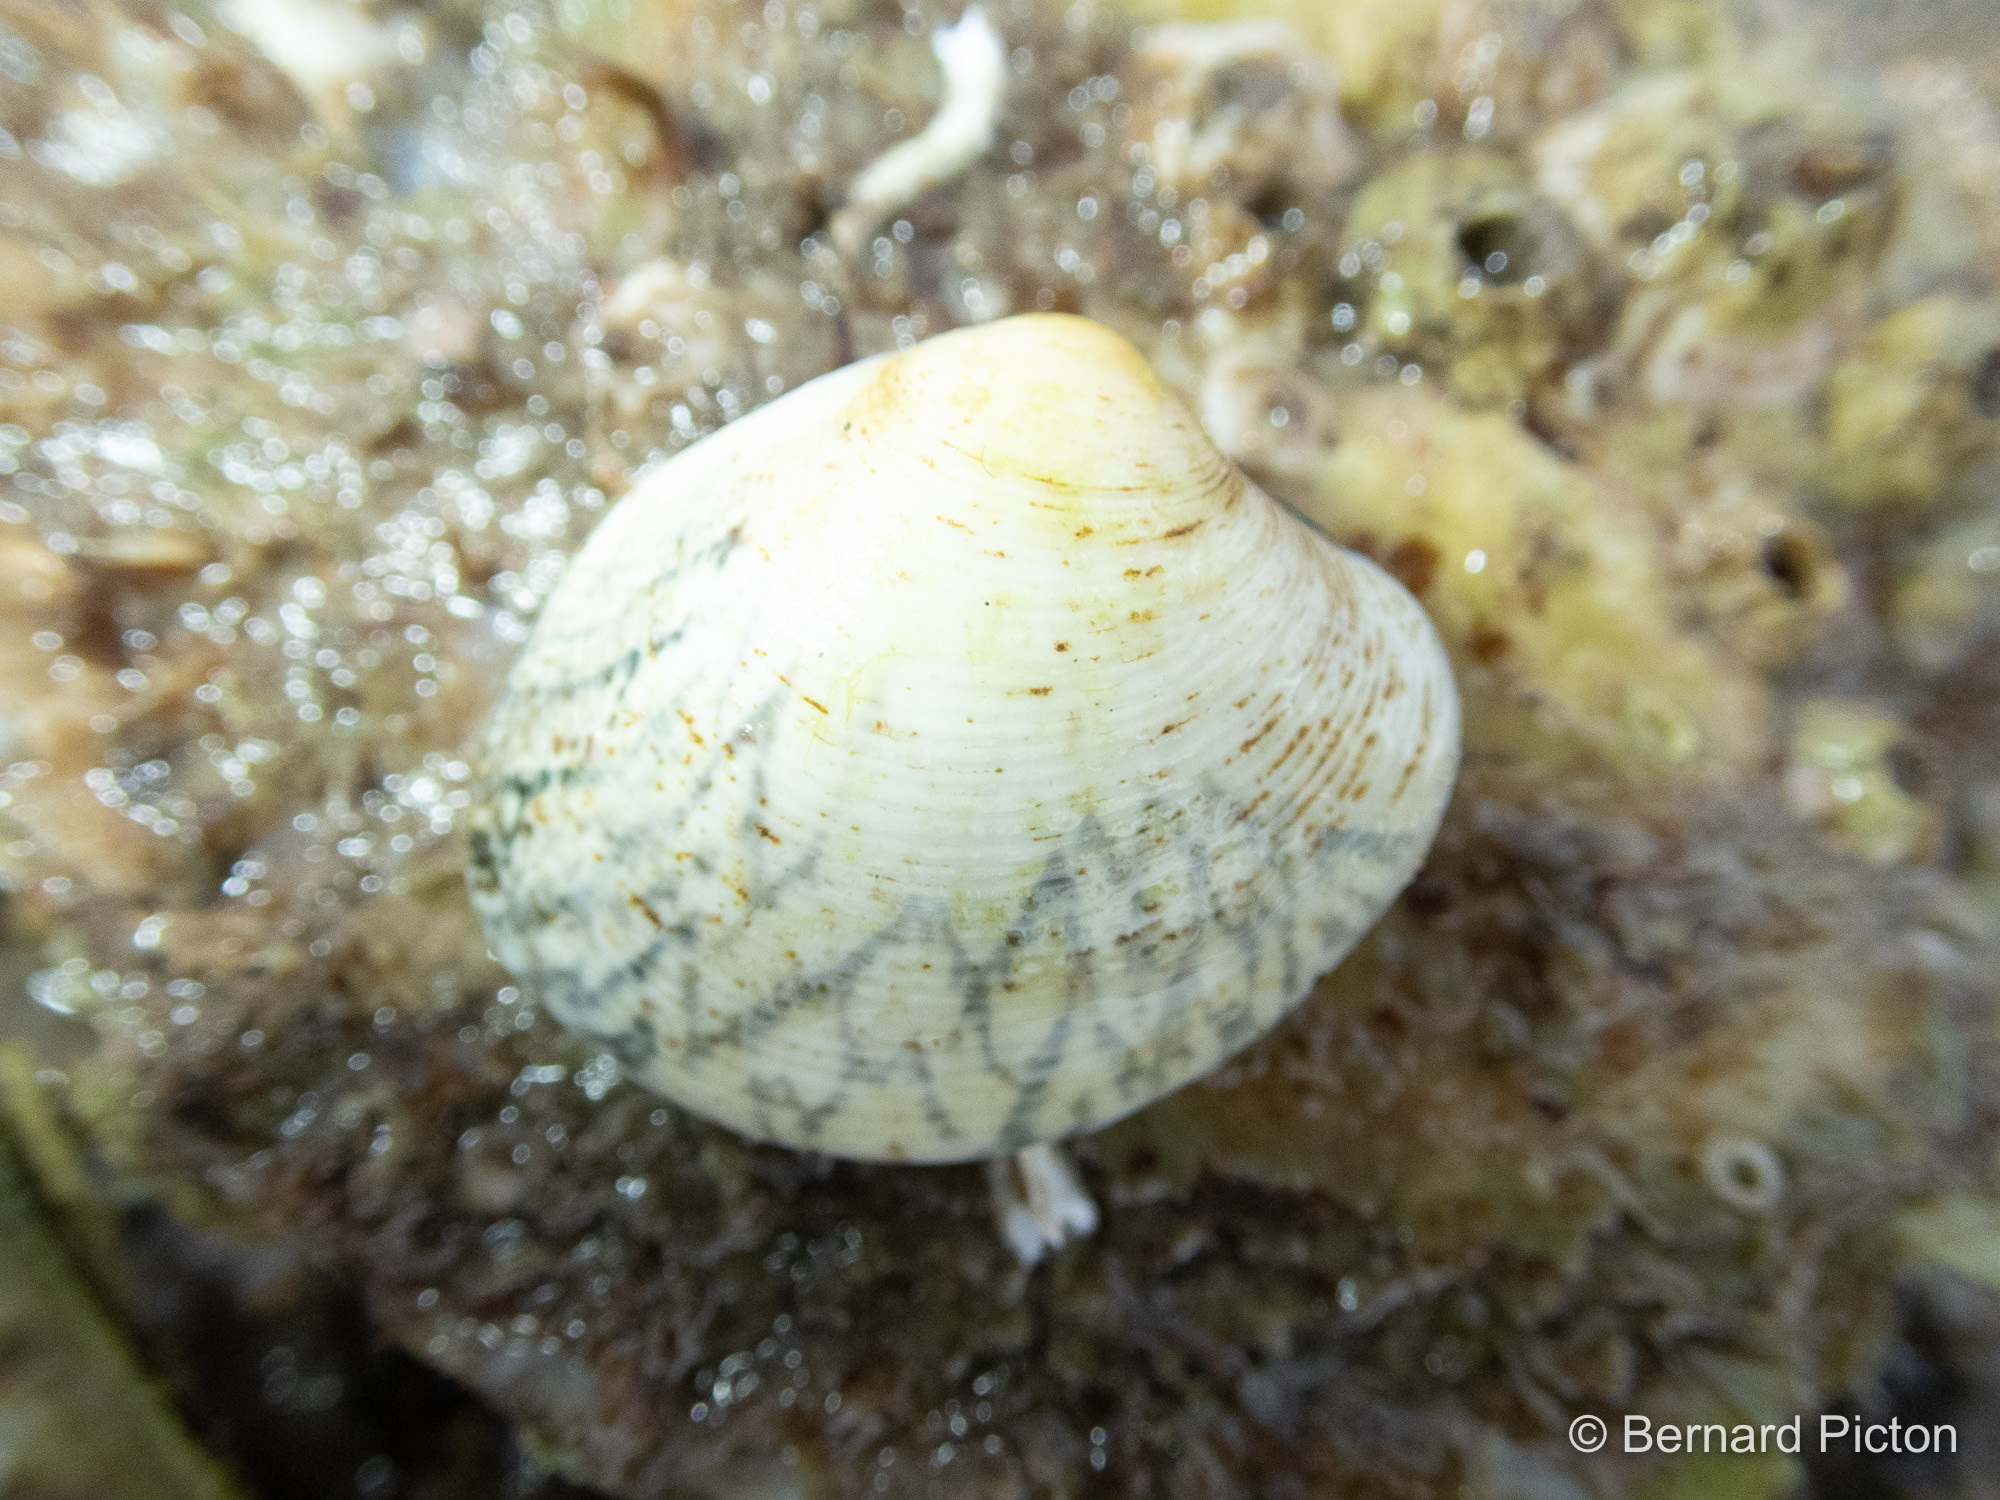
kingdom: Animalia
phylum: Mollusca
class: Bivalvia
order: Venerida
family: Veneridae
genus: Ruditapes
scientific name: Ruditapes decussatus
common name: Chequered carpet shell
